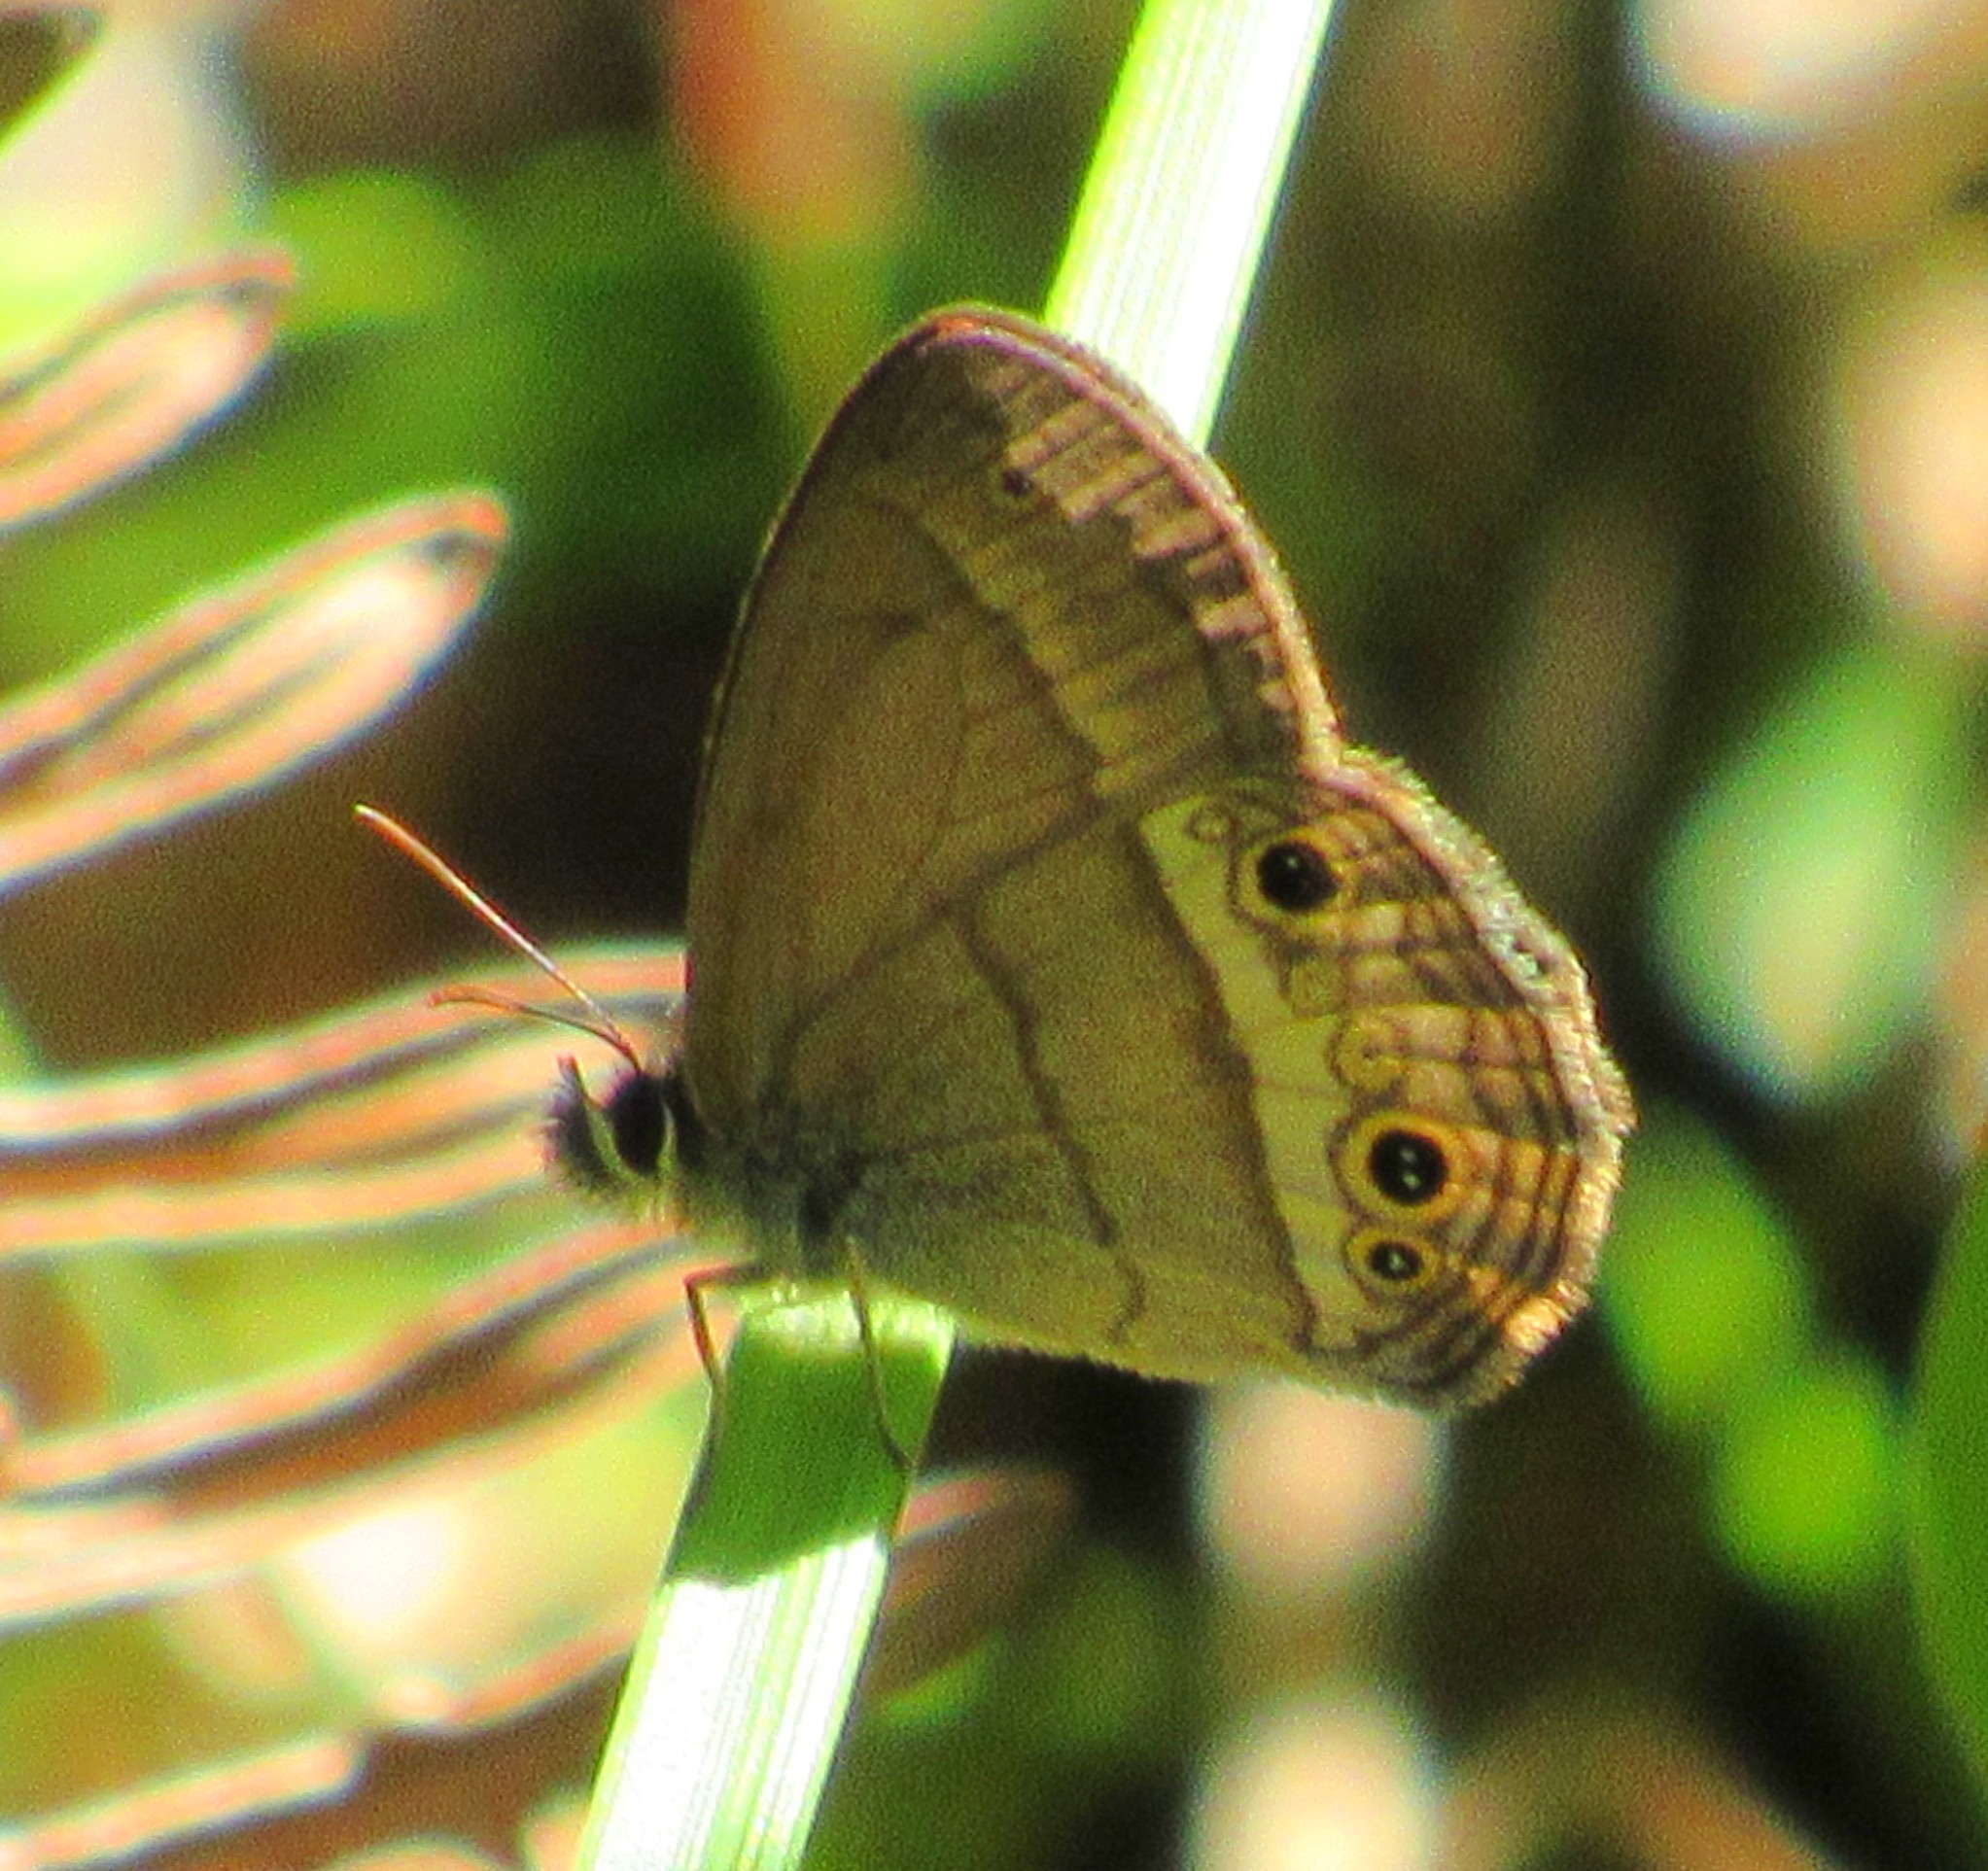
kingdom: Animalia
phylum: Arthropoda
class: Insecta
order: Lepidoptera
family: Nymphalidae
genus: Moneuptychia
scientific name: Moneuptychia
